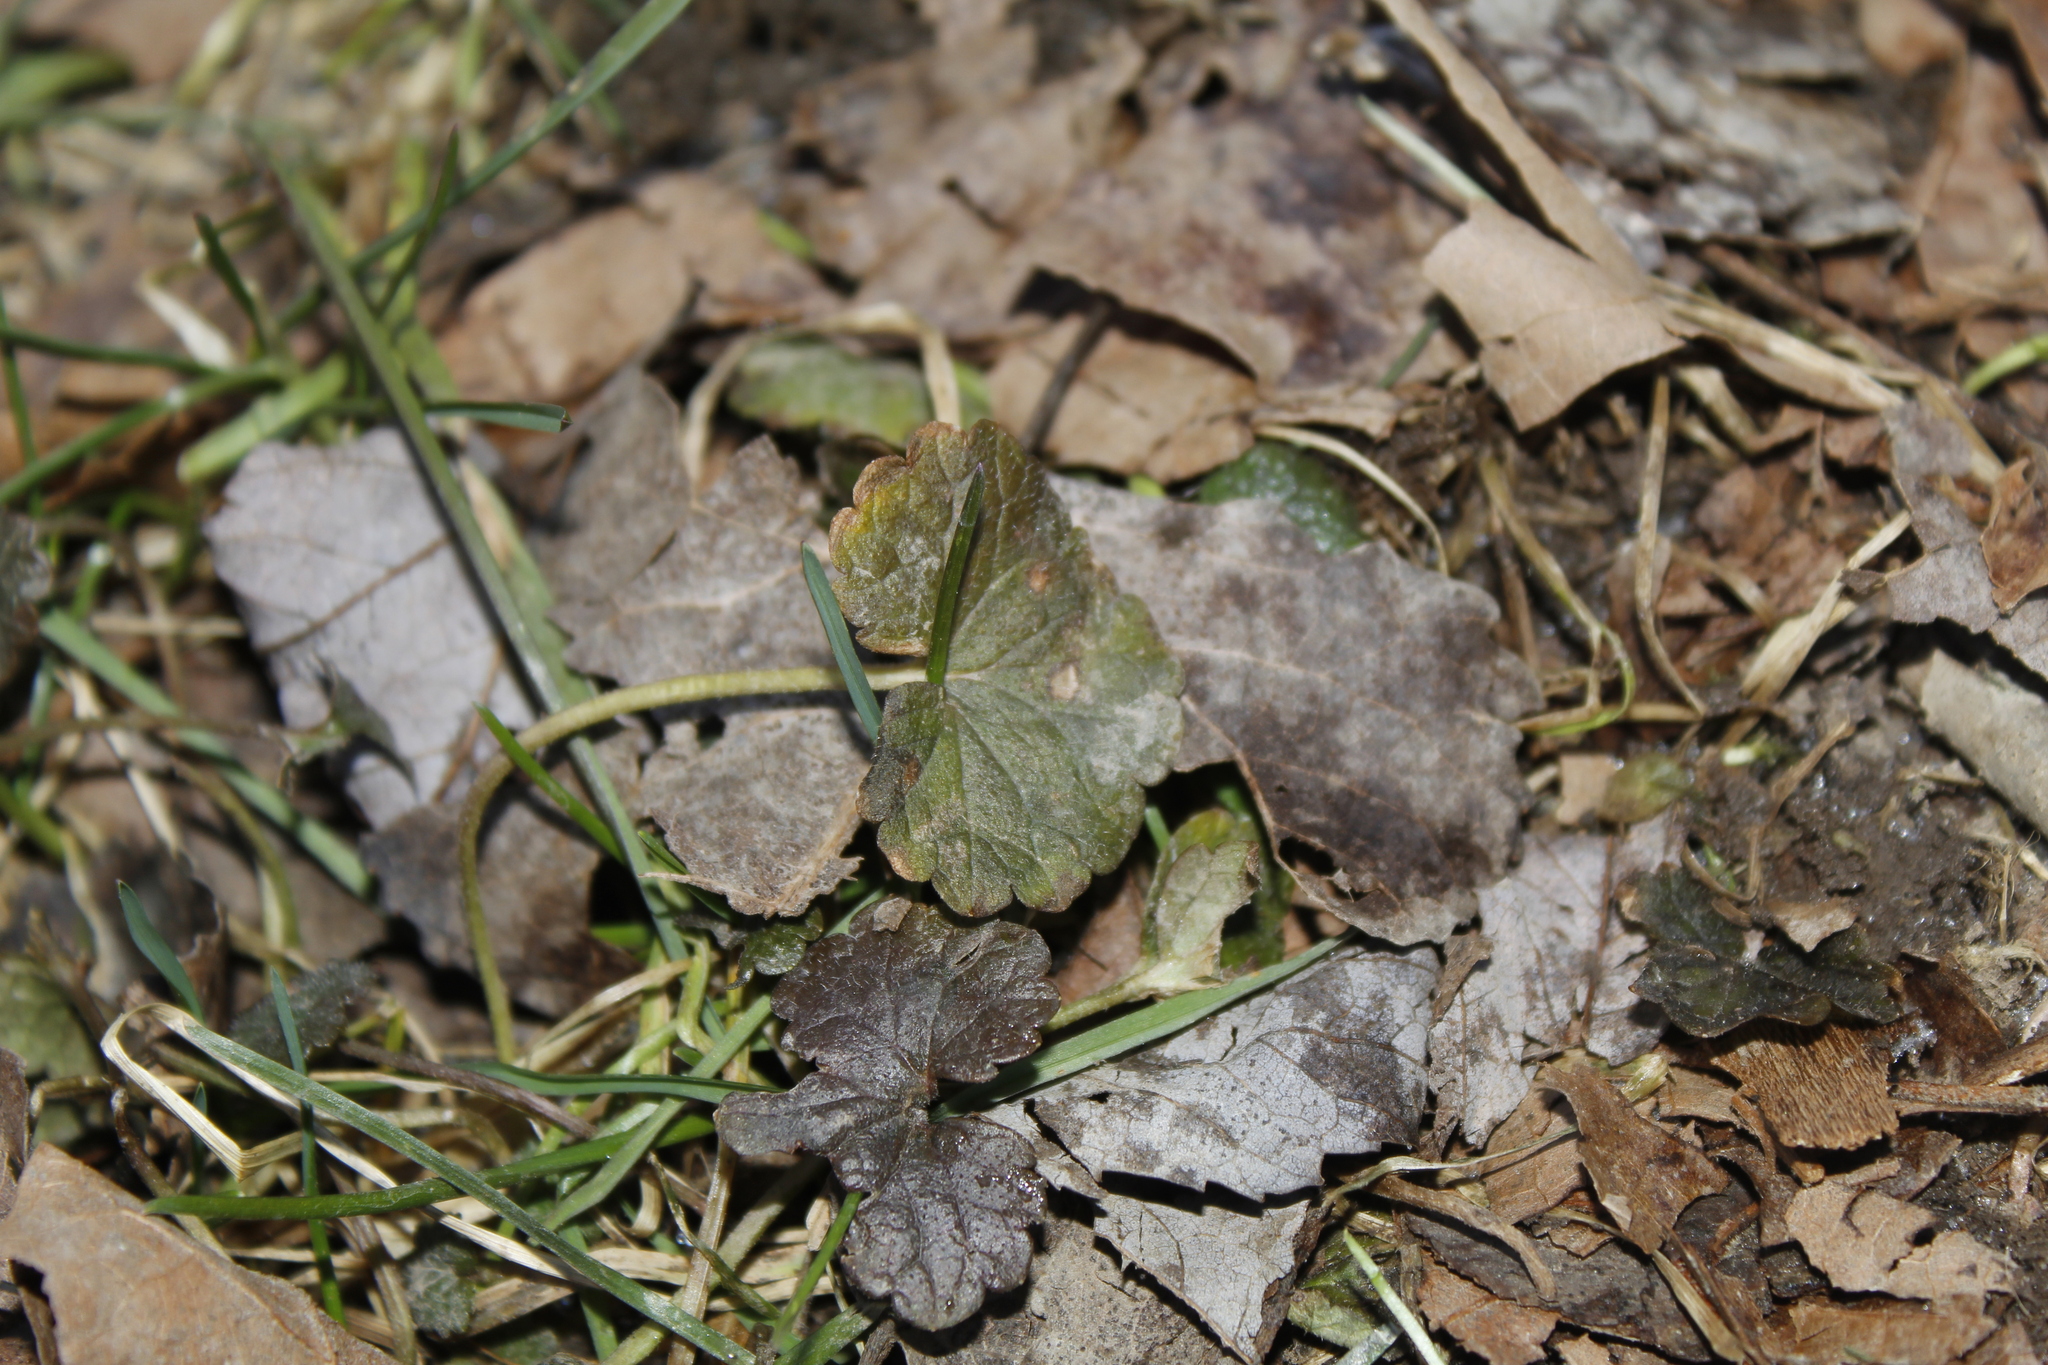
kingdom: Plantae
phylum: Tracheophyta
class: Magnoliopsida
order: Lamiales
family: Lamiaceae
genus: Glechoma
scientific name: Glechoma hederacea
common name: Ground ivy
